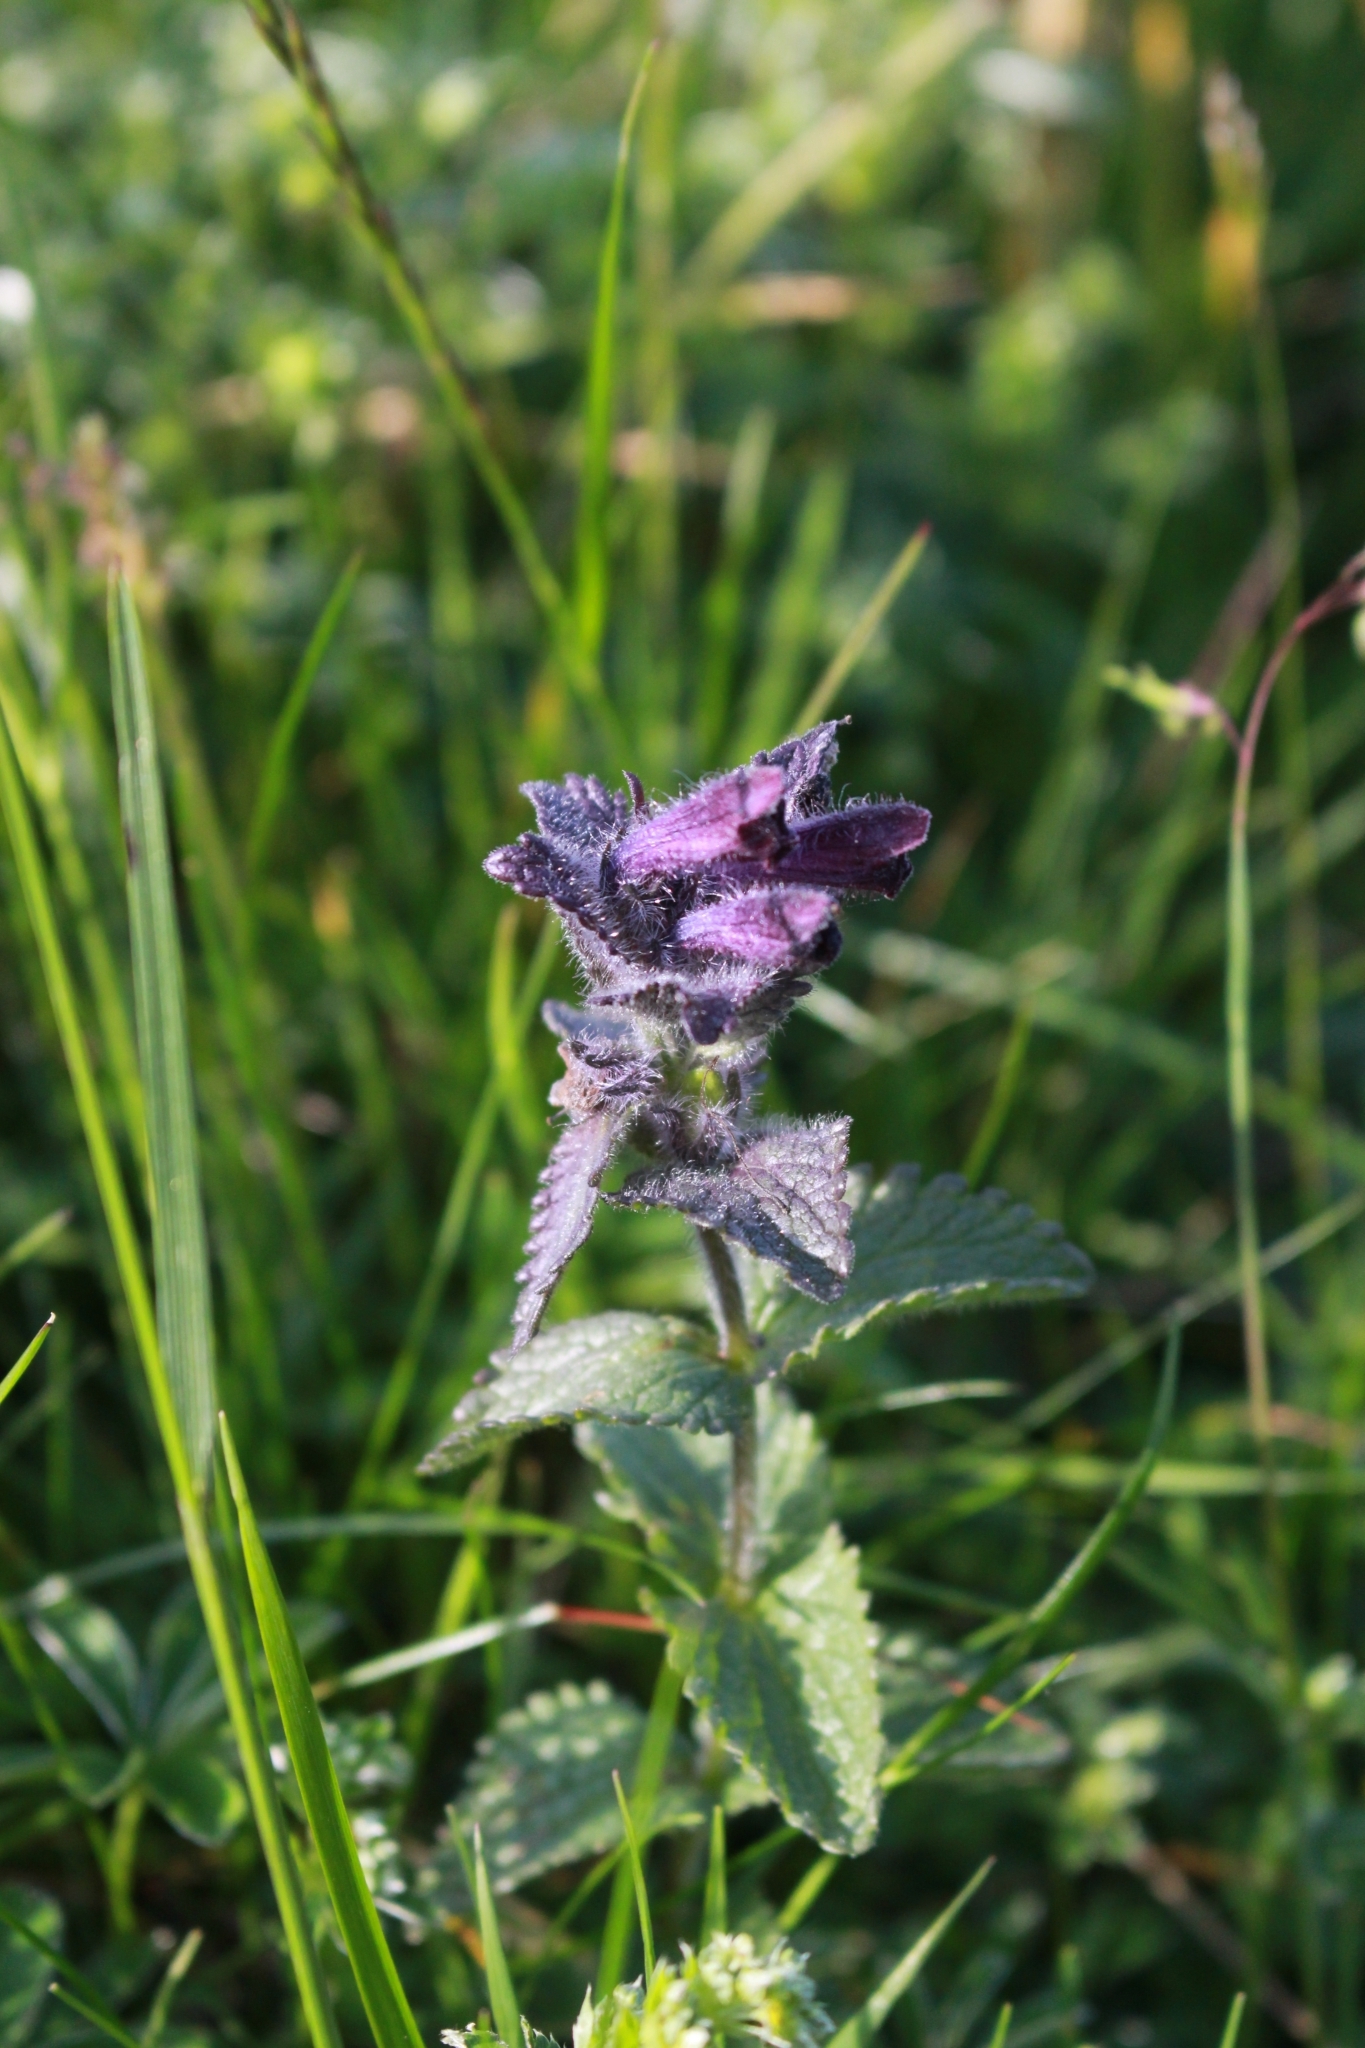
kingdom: Plantae
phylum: Tracheophyta
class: Magnoliopsida
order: Lamiales
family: Orobanchaceae
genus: Bartsia
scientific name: Bartsia alpina
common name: Alpine bartsia
